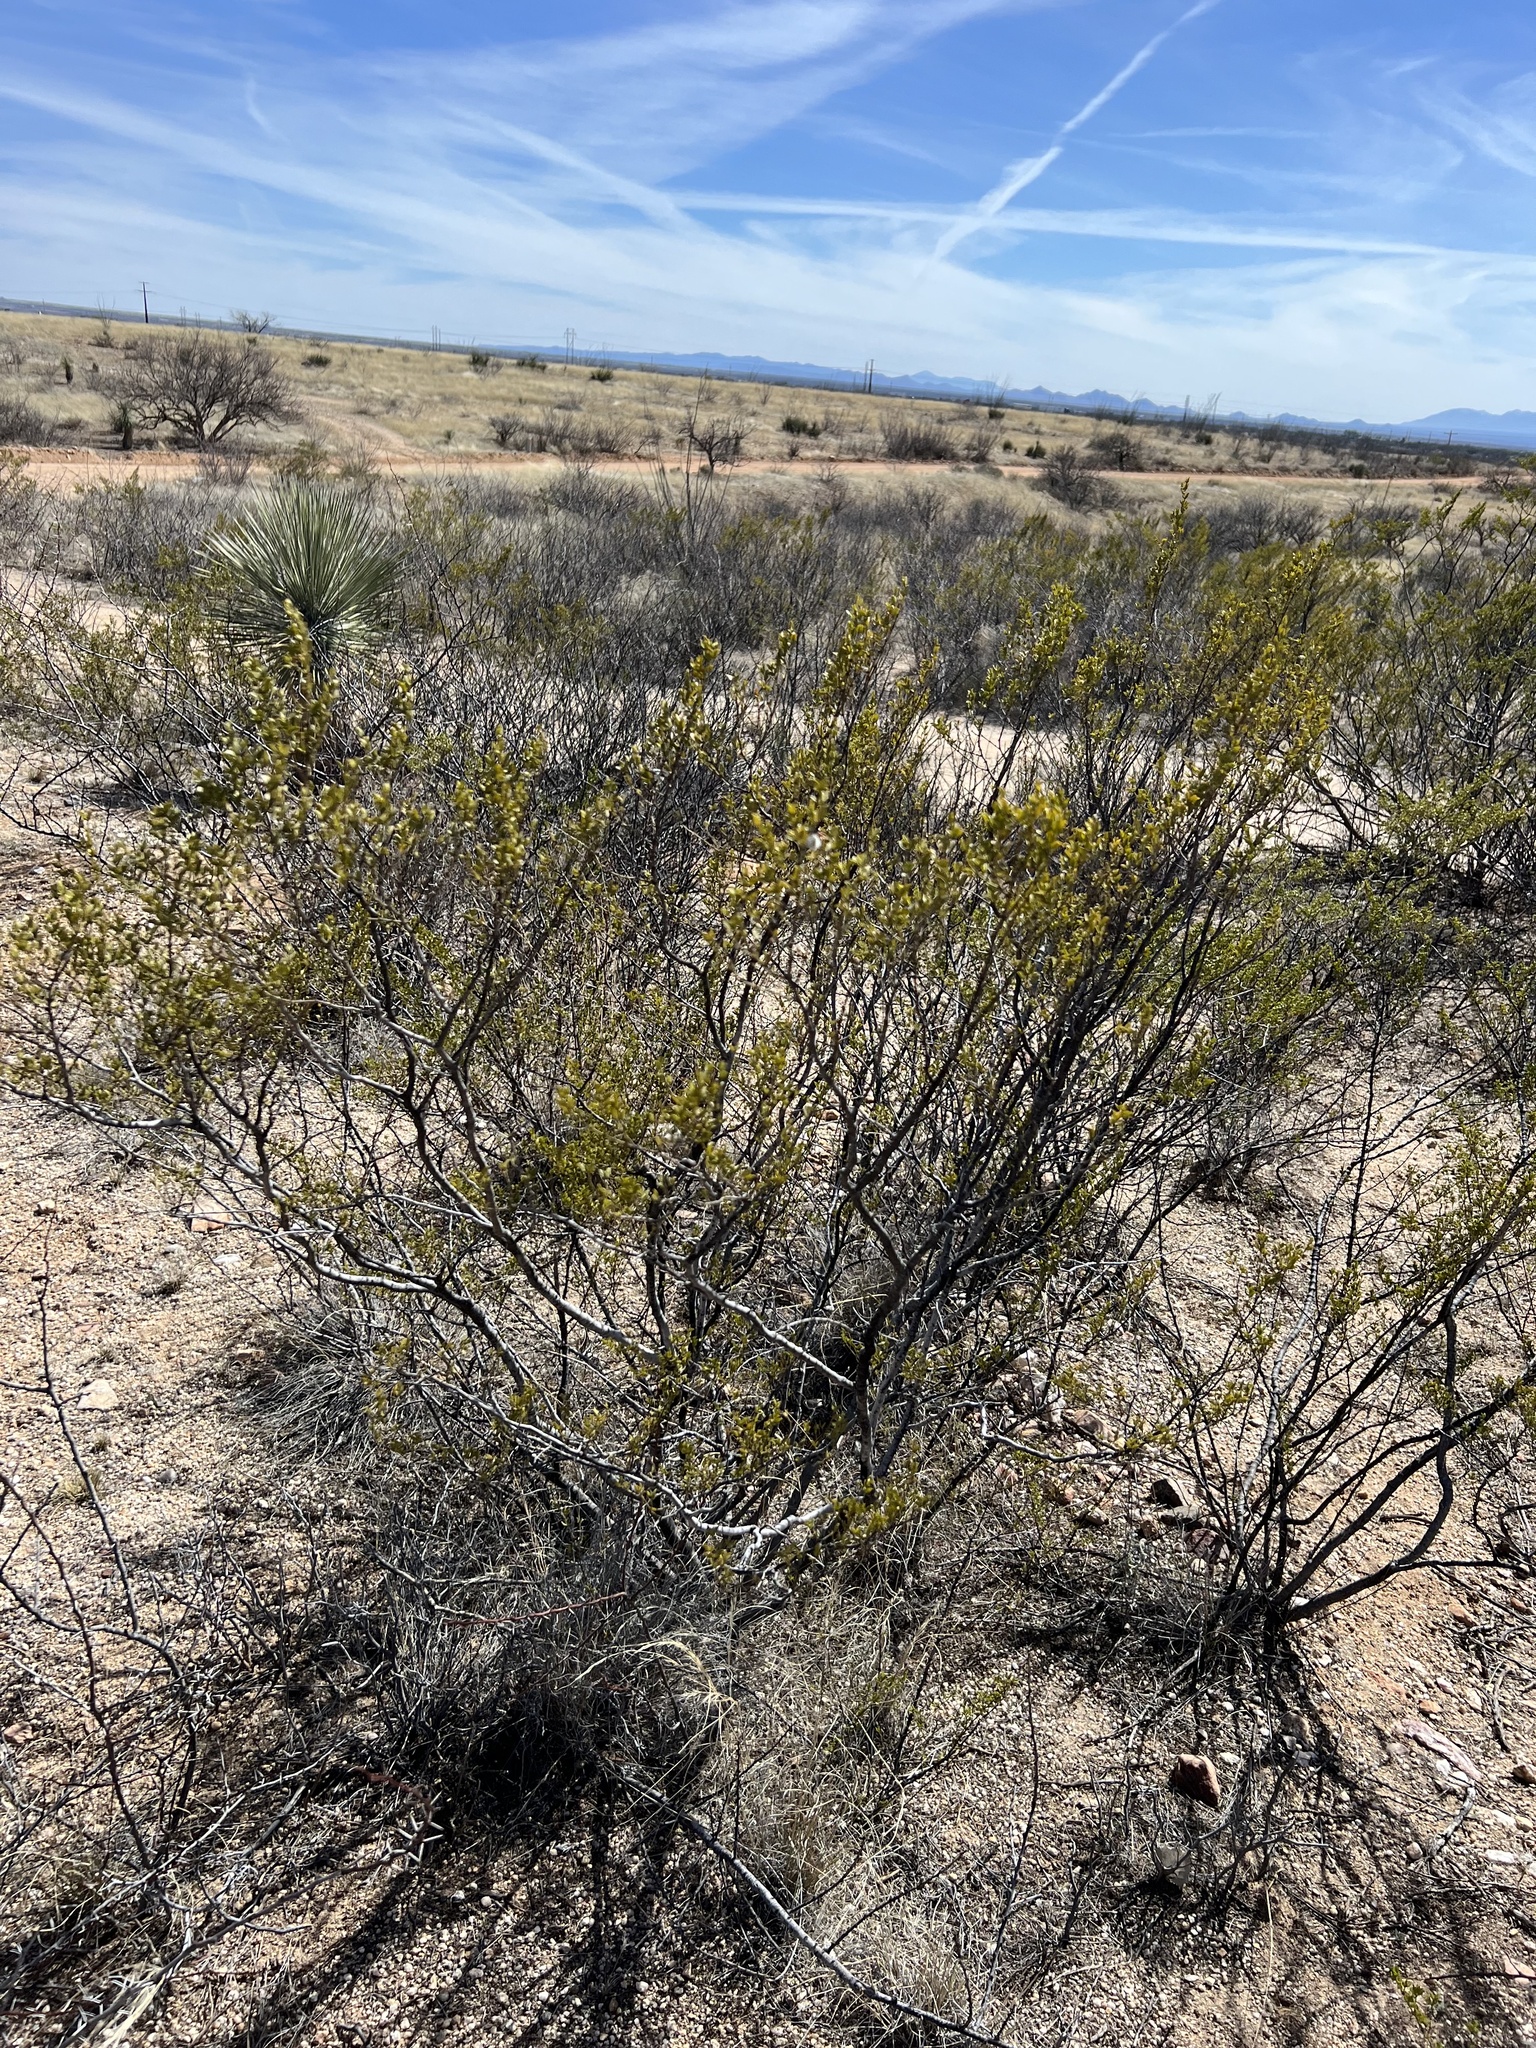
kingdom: Plantae
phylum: Tracheophyta
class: Magnoliopsida
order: Zygophyllales
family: Zygophyllaceae
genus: Larrea
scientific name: Larrea tridentata
